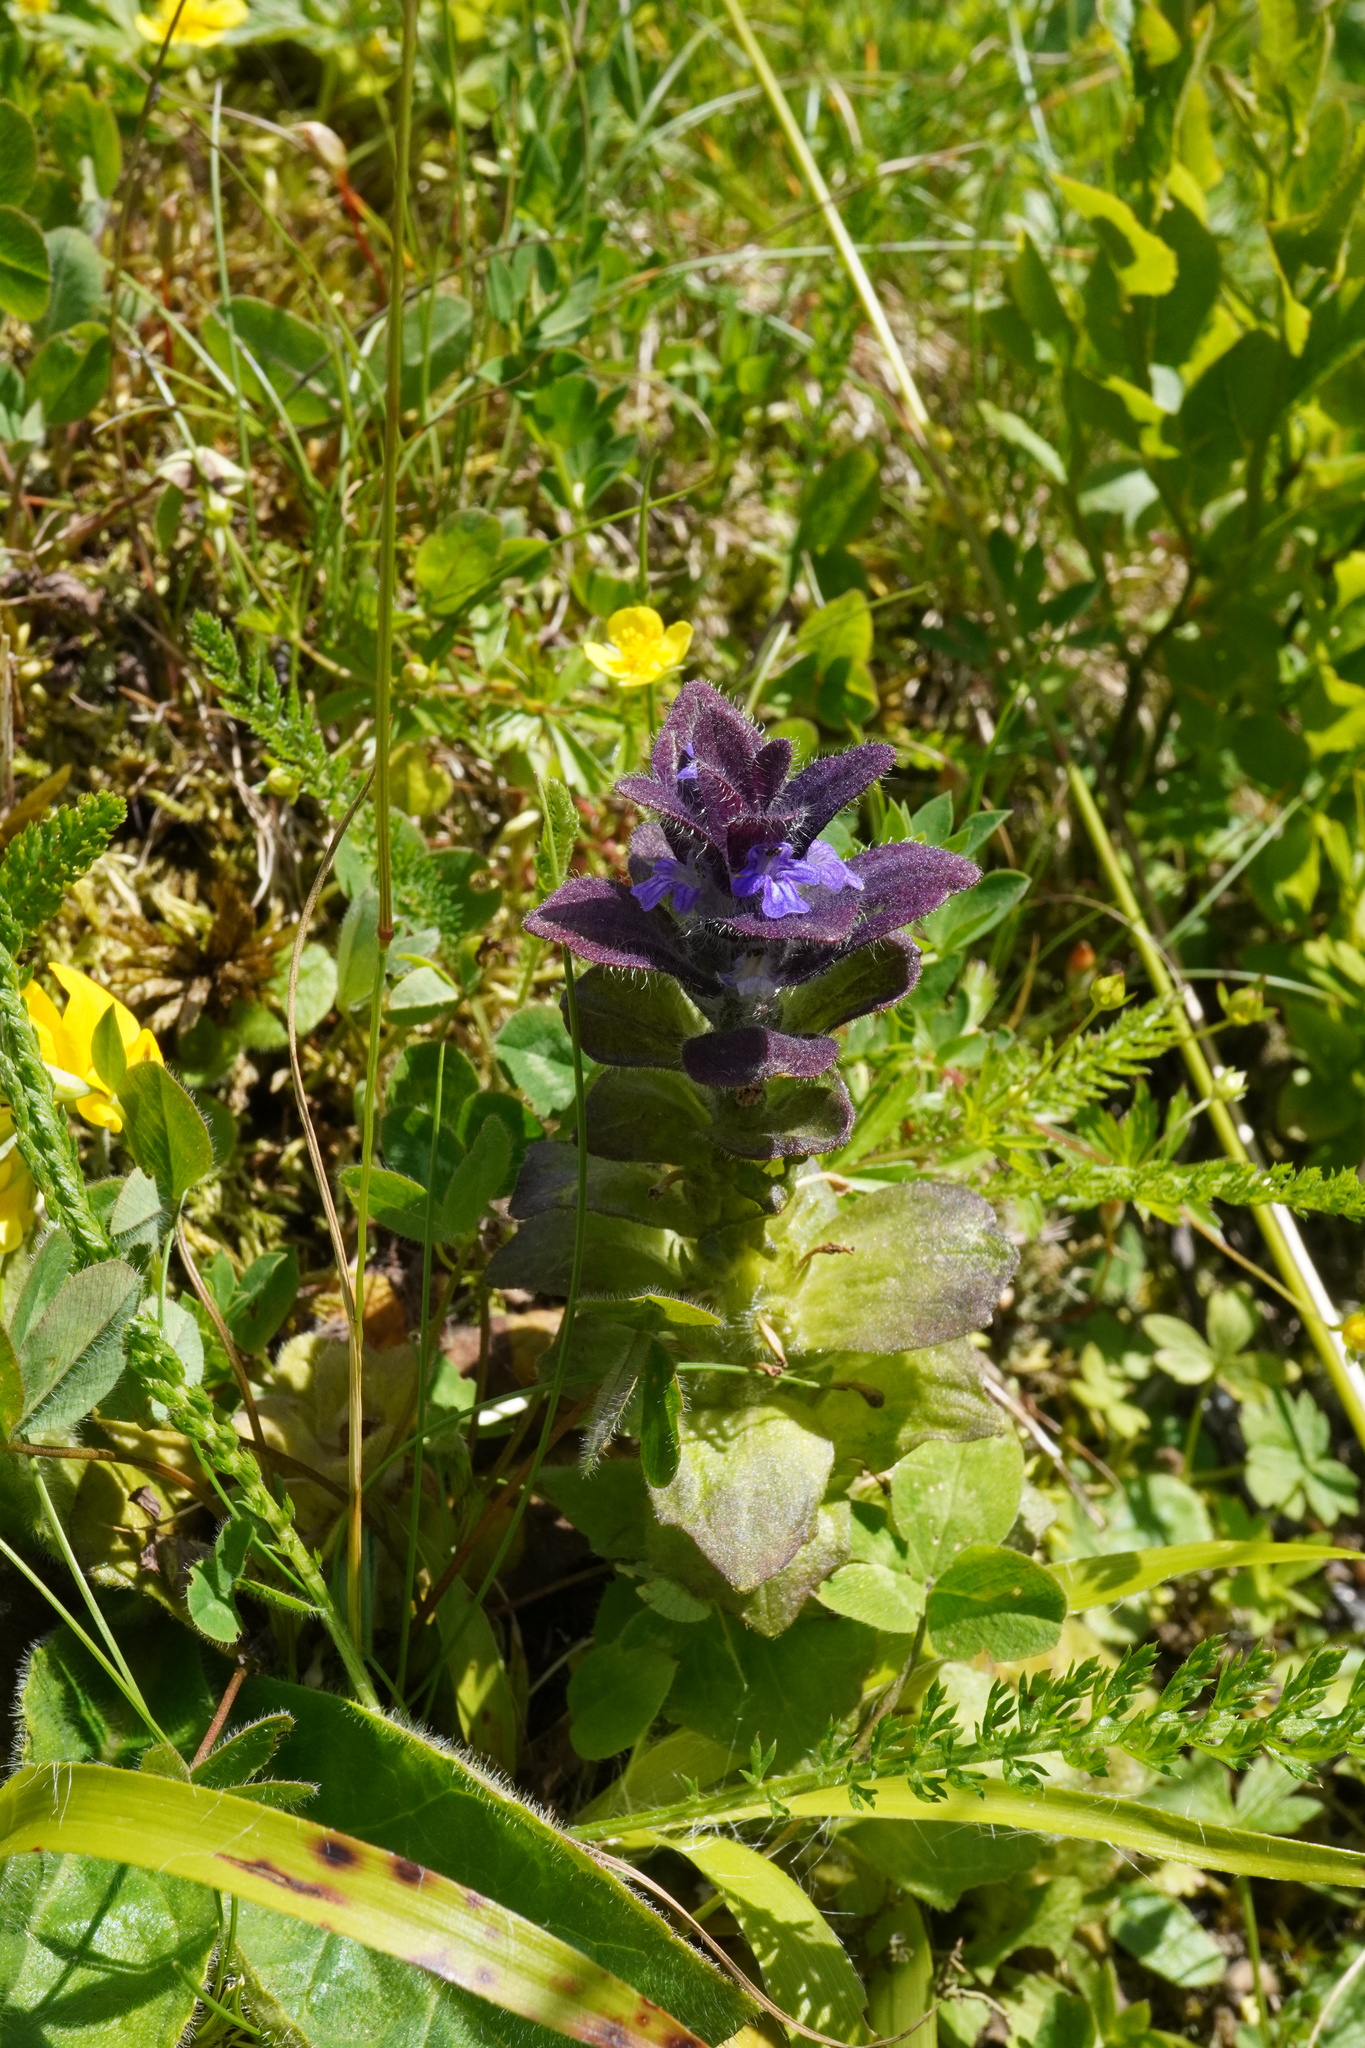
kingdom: Plantae
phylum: Tracheophyta
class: Magnoliopsida
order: Lamiales
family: Lamiaceae
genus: Ajuga
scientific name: Ajuga pyramidalis
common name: Pyramid bugle
